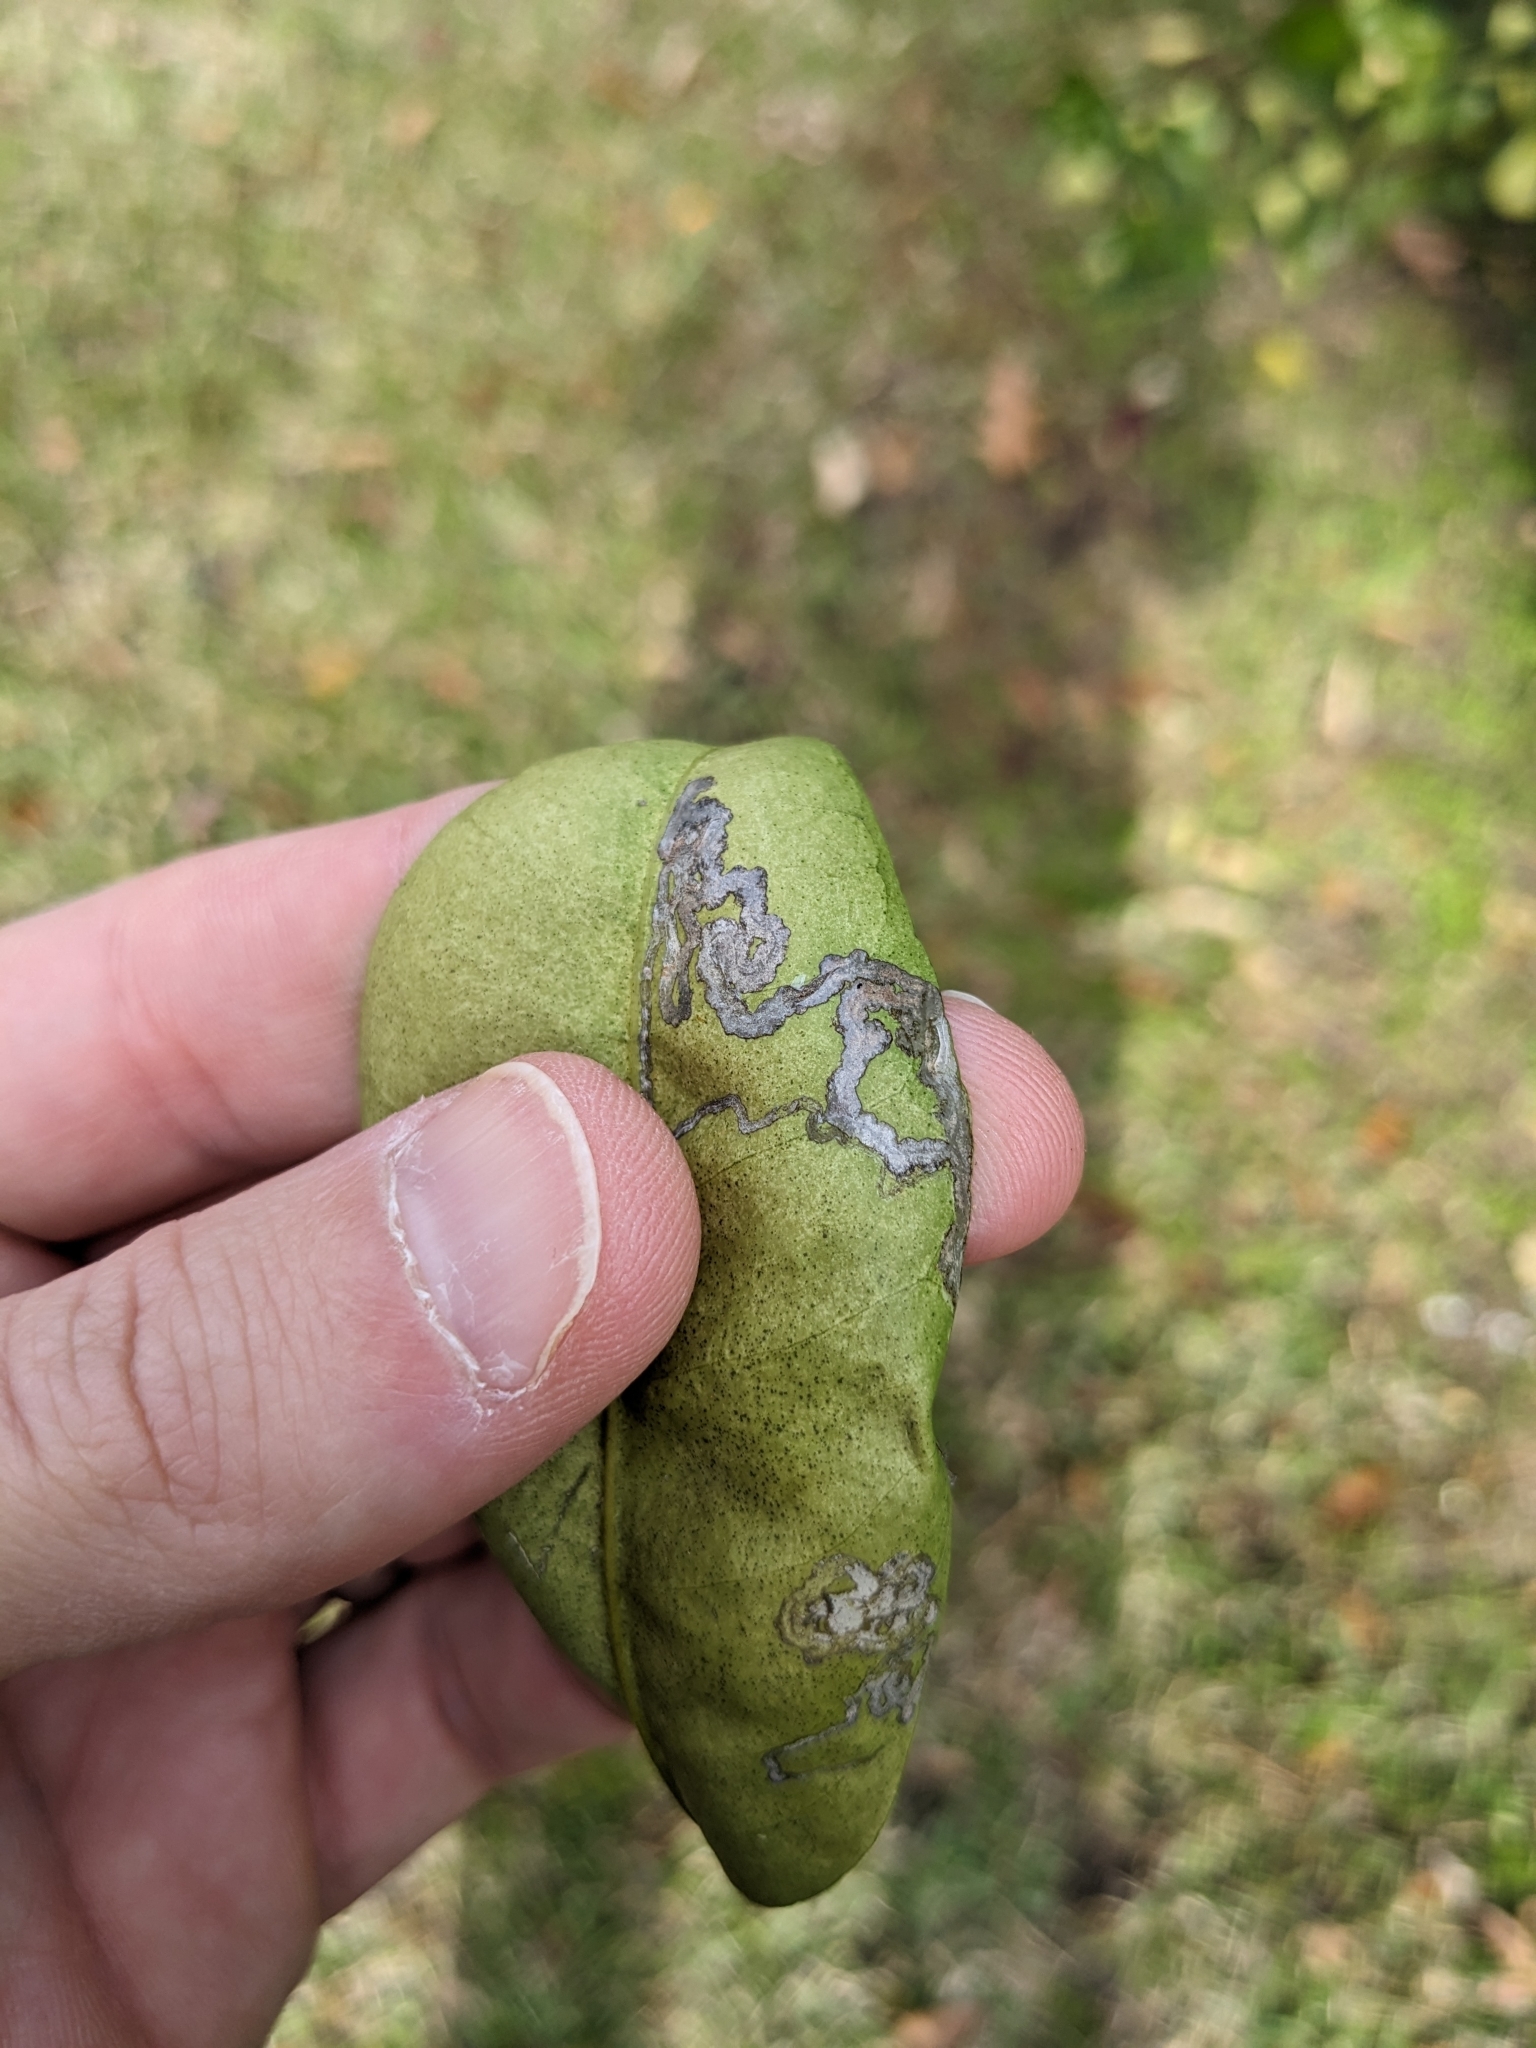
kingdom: Animalia
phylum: Arthropoda
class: Insecta
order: Lepidoptera
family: Gracillariidae
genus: Phyllocnistis
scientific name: Phyllocnistis citrella
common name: Citrus leafminer
